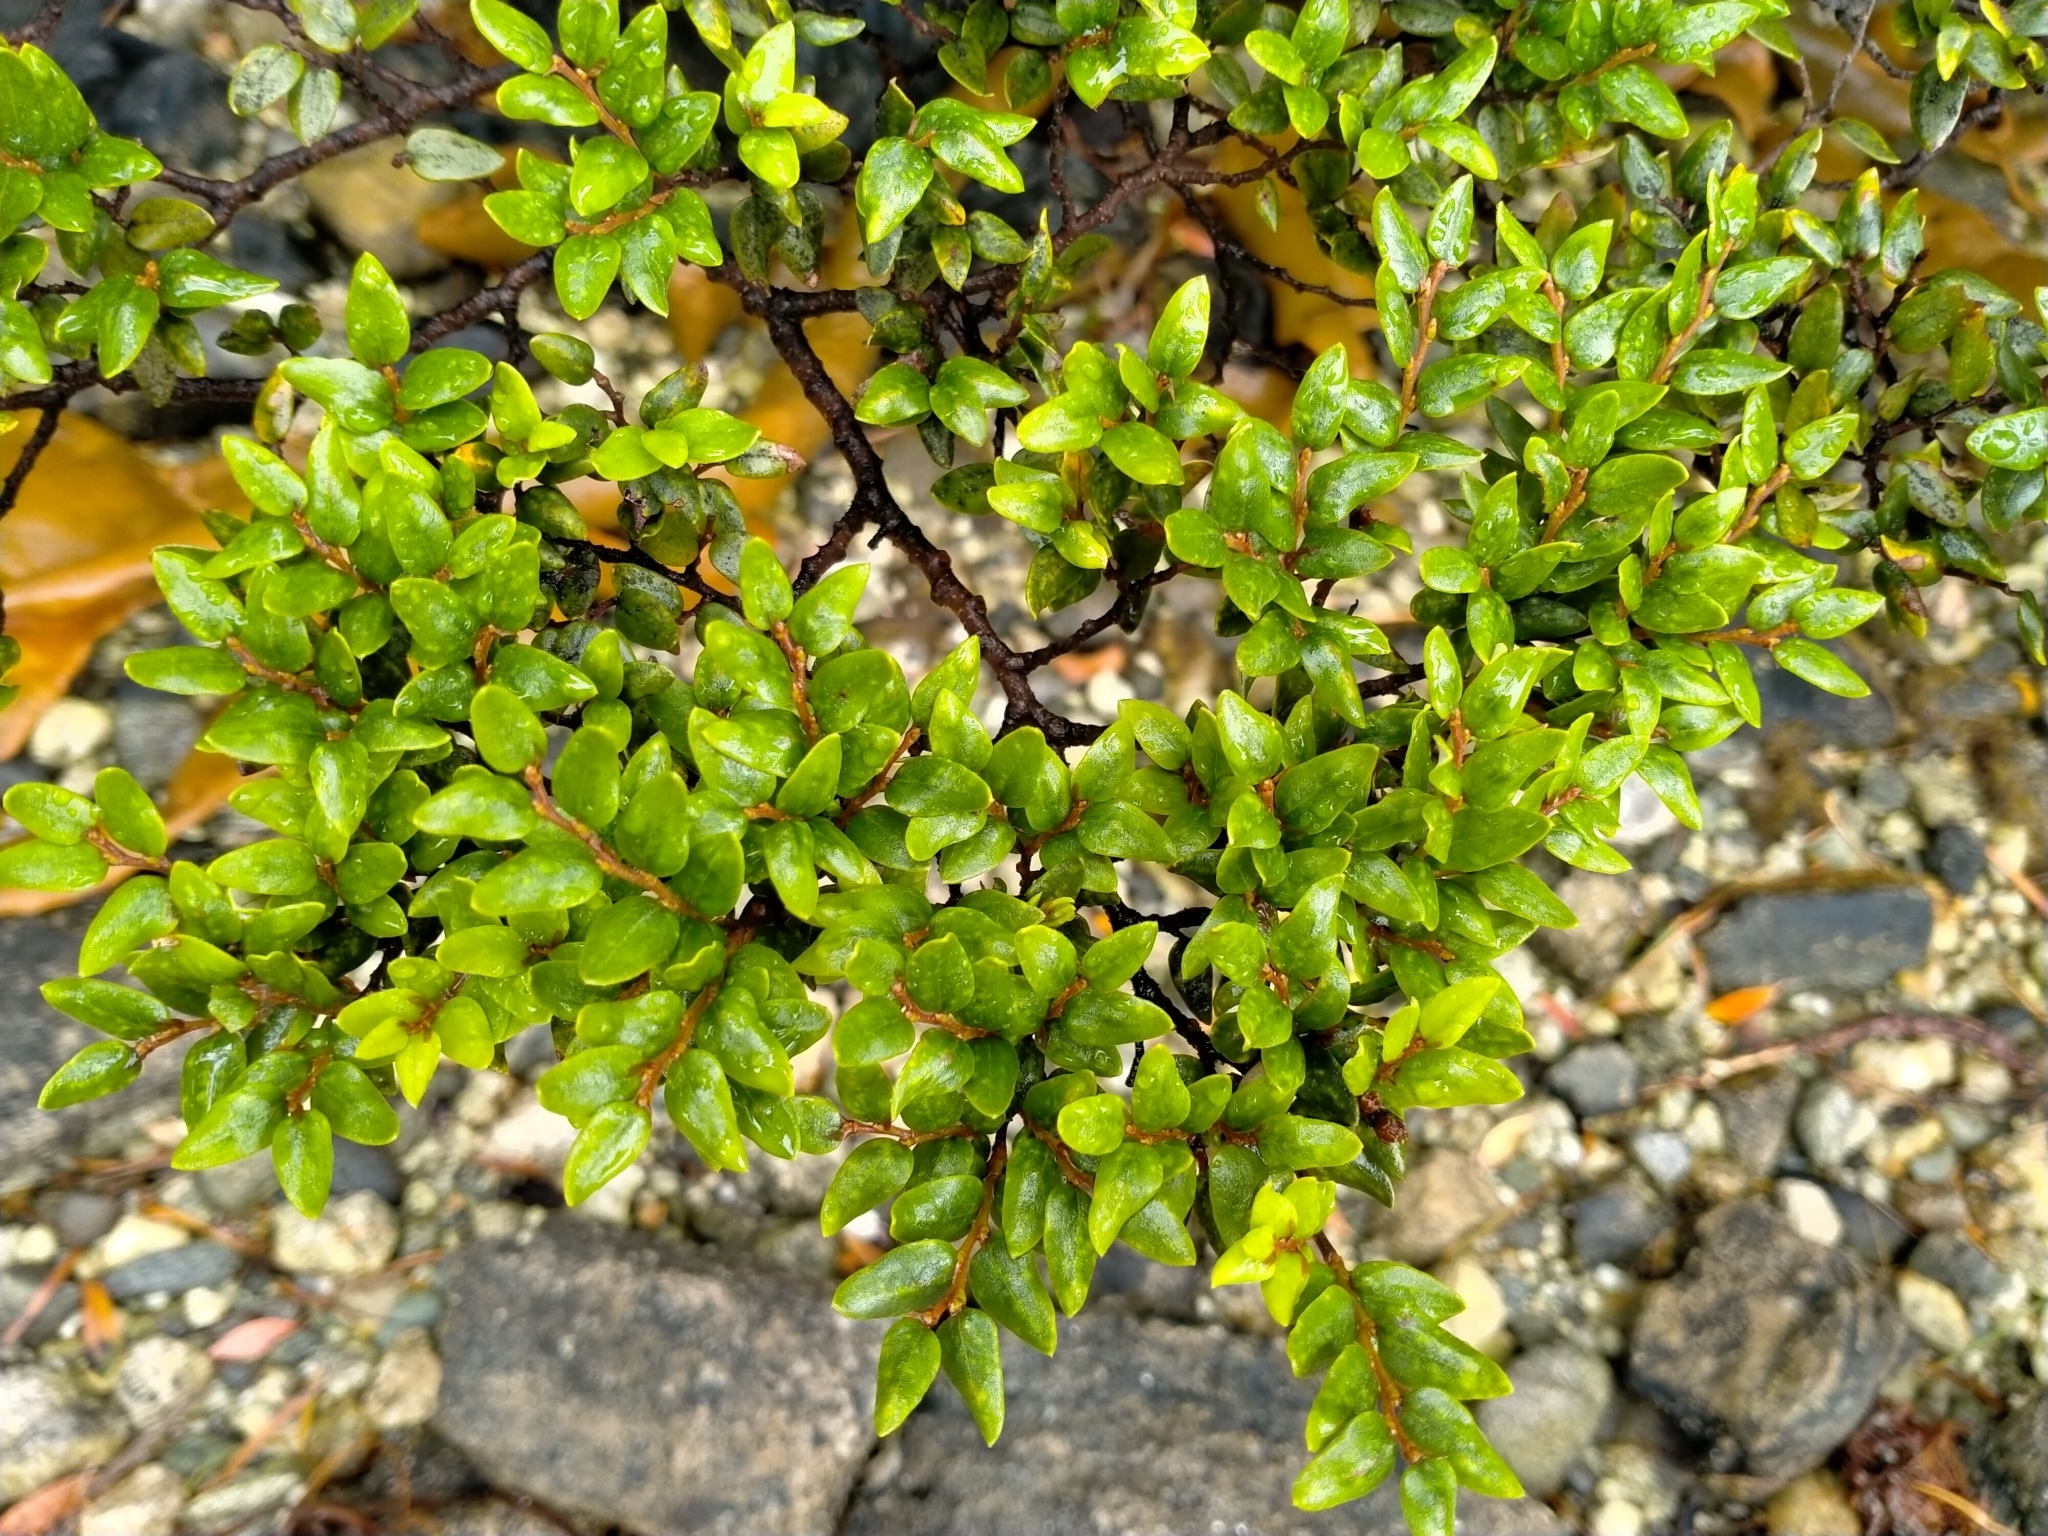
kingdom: Plantae
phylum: Tracheophyta
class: Magnoliopsida
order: Fagales
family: Nothofagaceae
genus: Nothofagus
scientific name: Nothofagus cliffortioides
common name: Mountain beech
